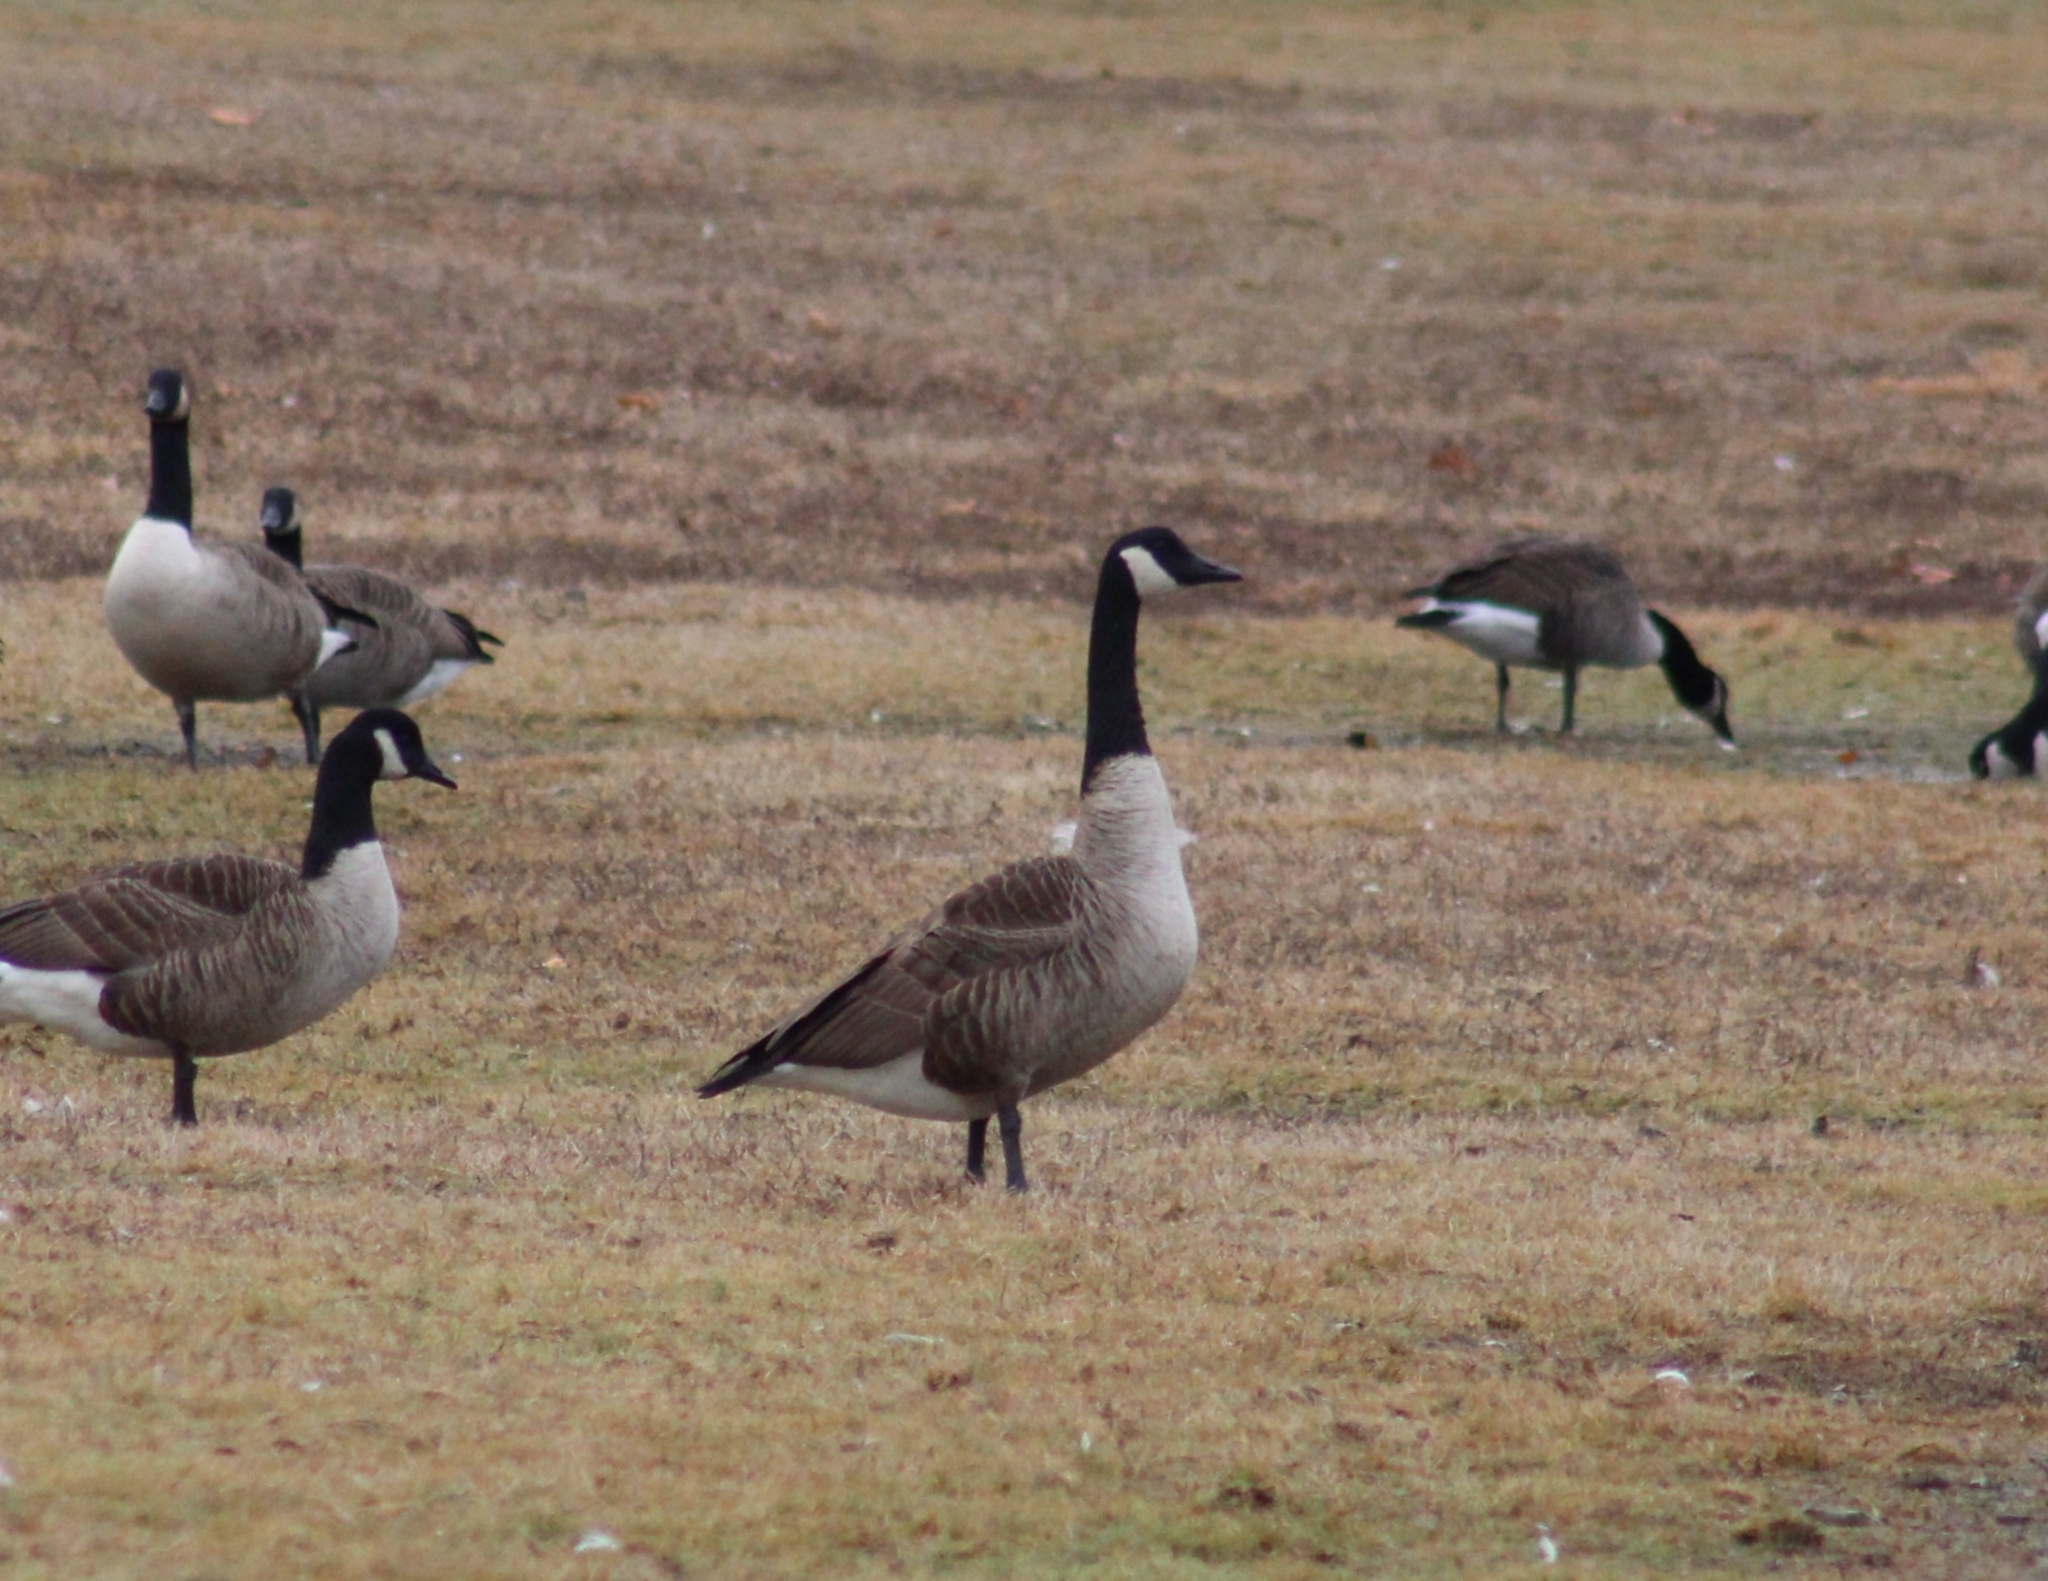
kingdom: Animalia
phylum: Chordata
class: Aves
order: Anseriformes
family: Anatidae
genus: Branta
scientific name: Branta canadensis
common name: Canada goose
